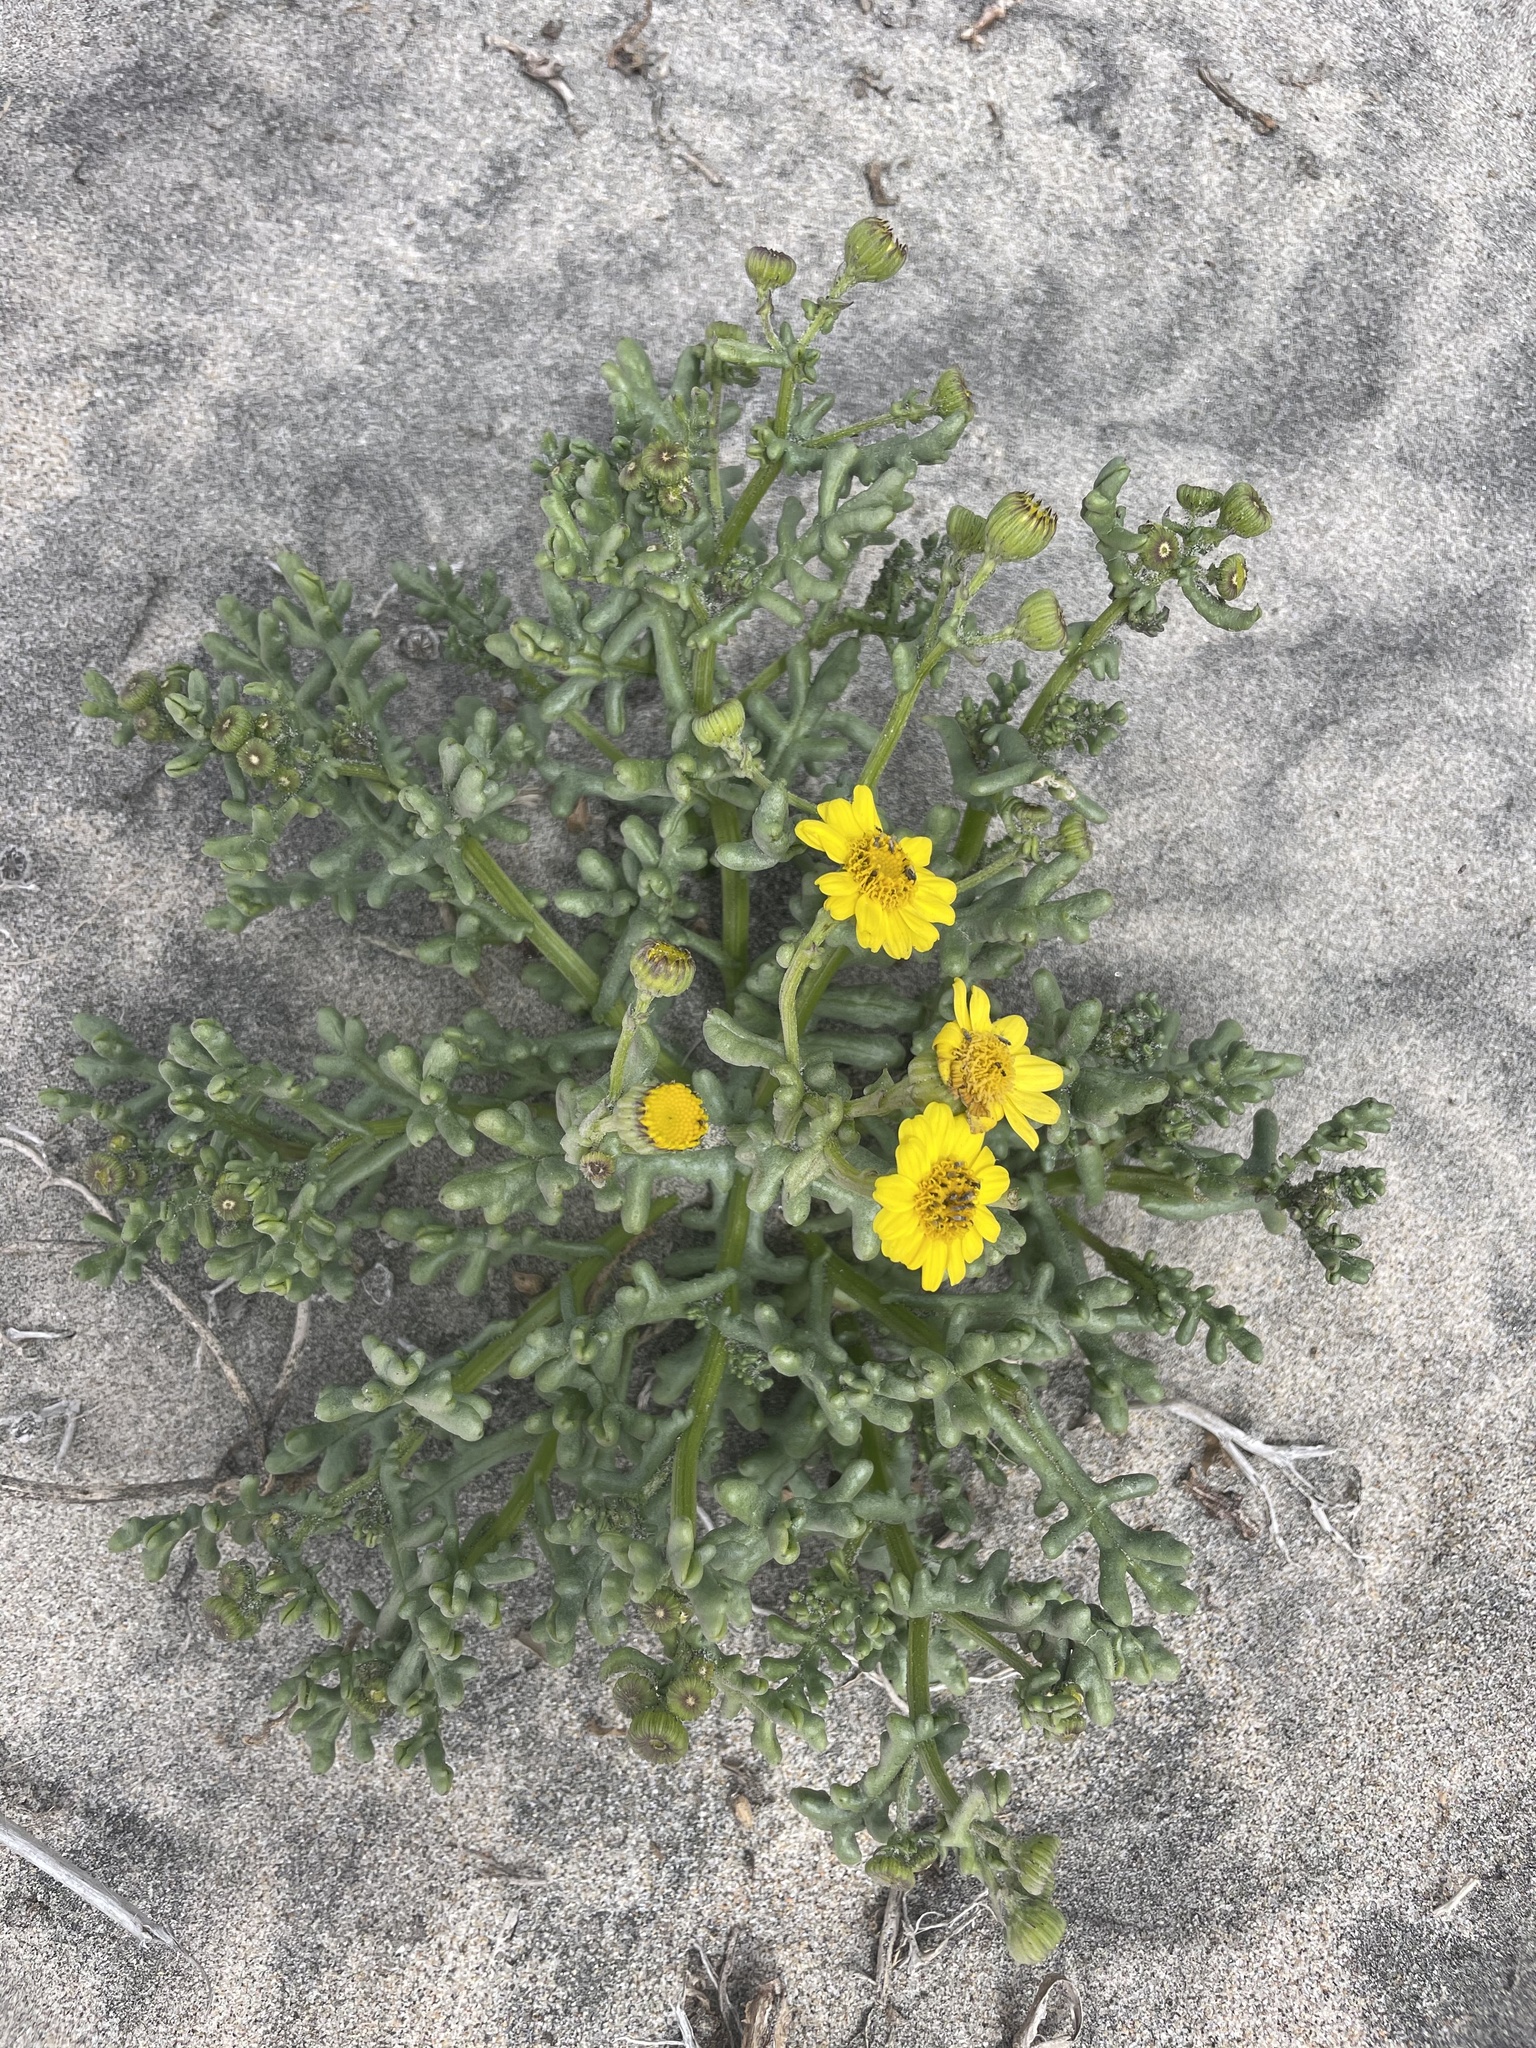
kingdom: Plantae
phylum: Tracheophyta
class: Magnoliopsida
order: Asterales
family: Asteraceae
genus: Senecio
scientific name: Senecio californicus
